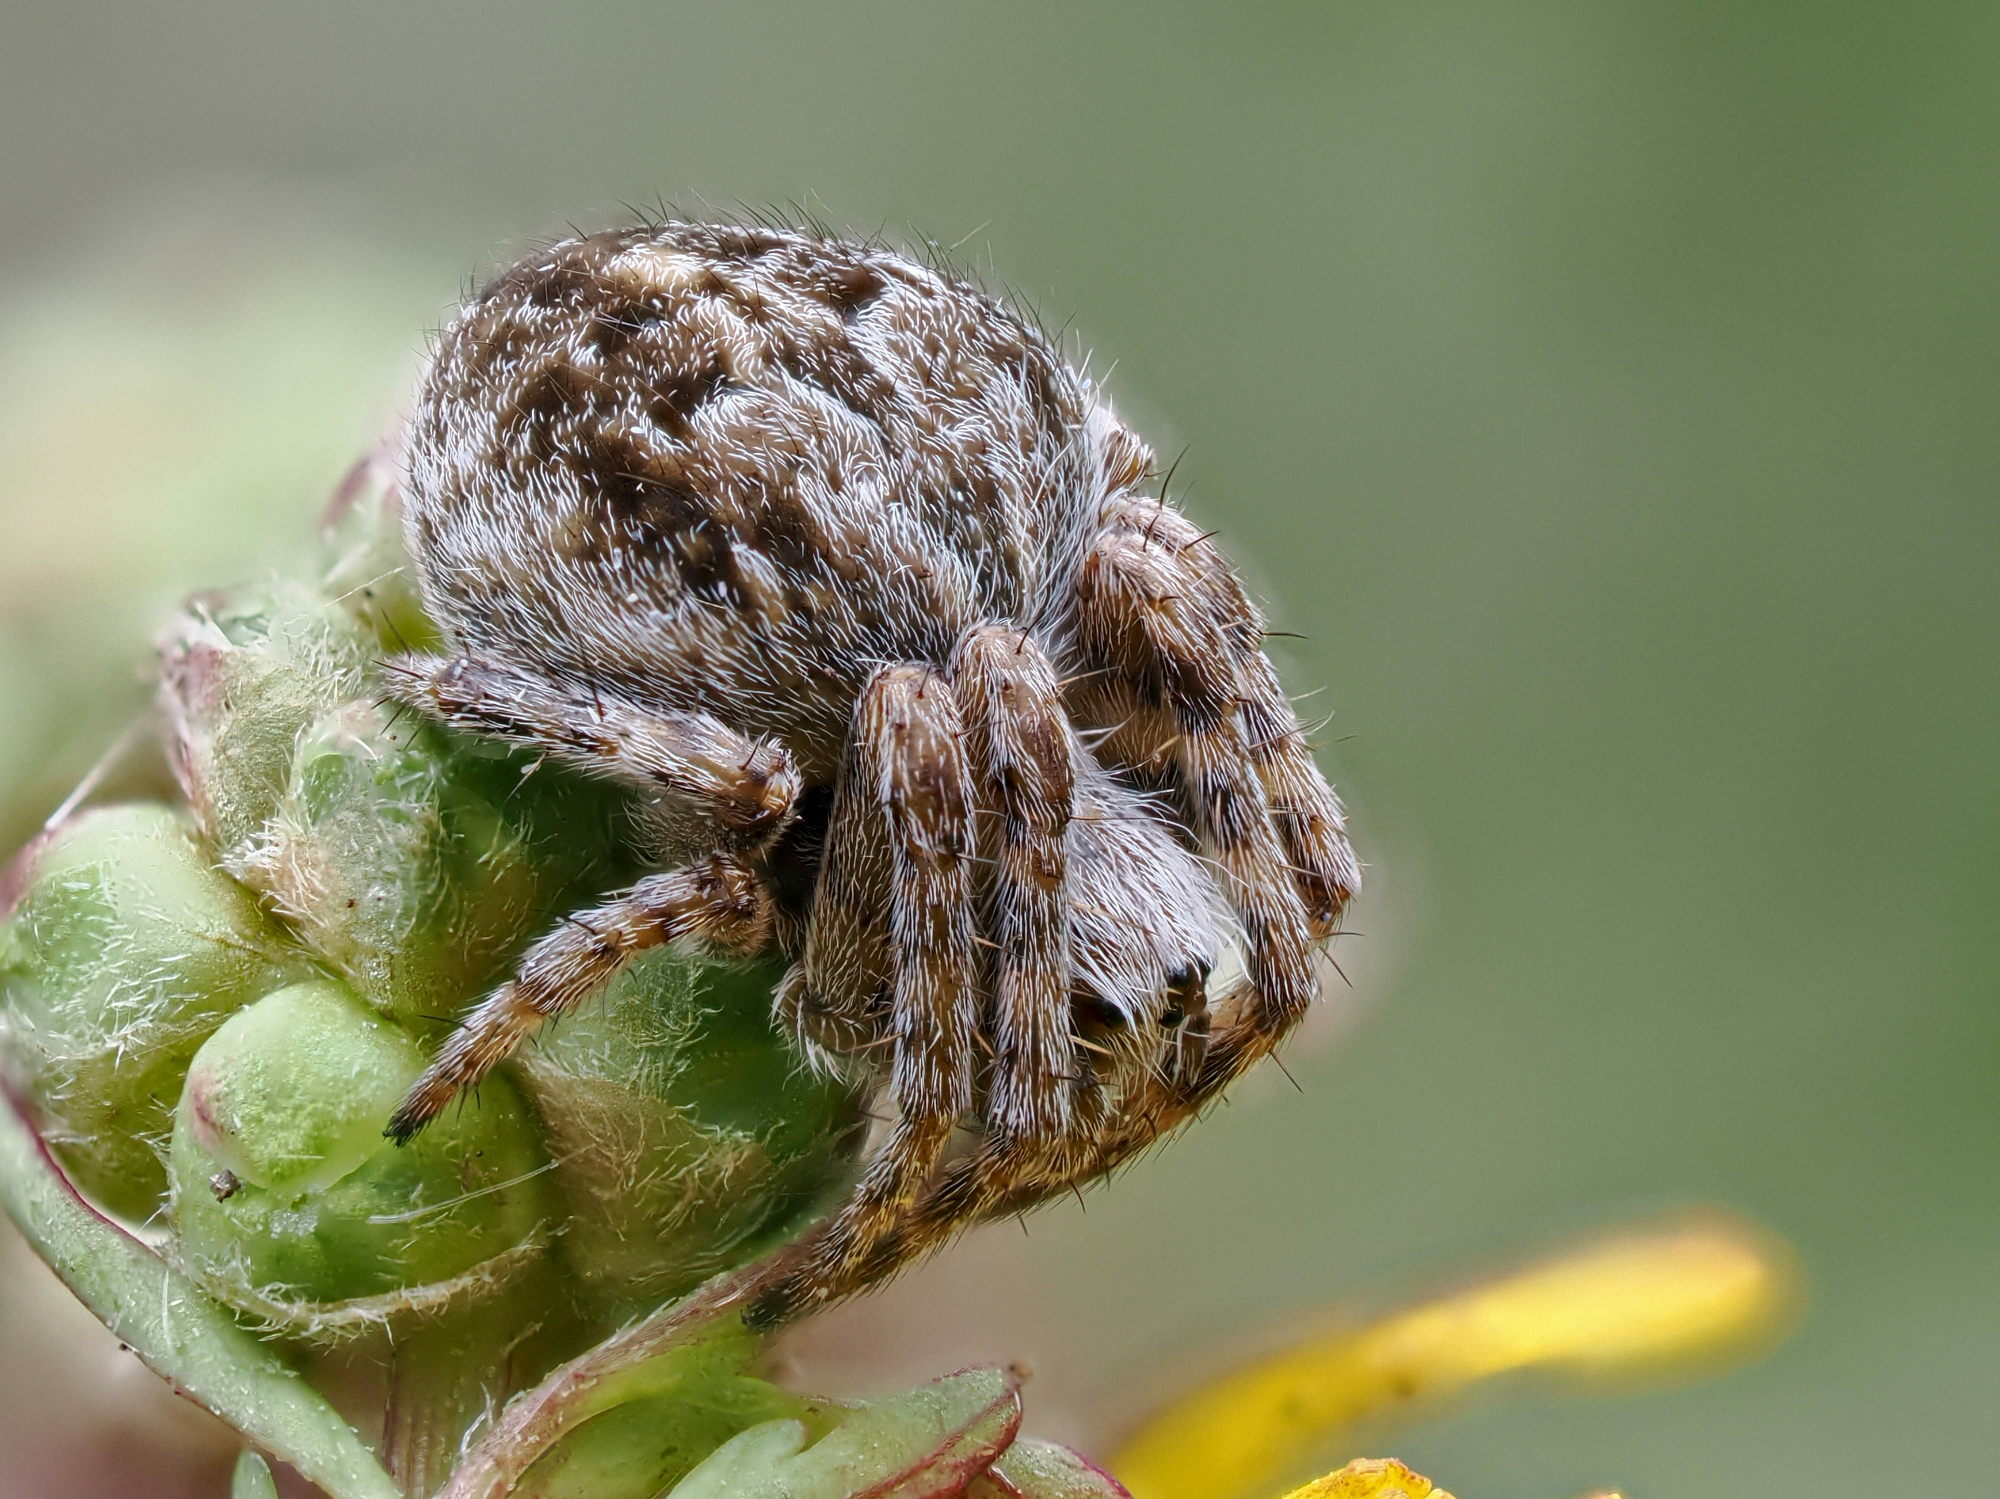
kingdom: Animalia
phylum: Arthropoda
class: Arachnida
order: Araneae
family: Araneidae
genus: Agalenatea
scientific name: Agalenatea redii
